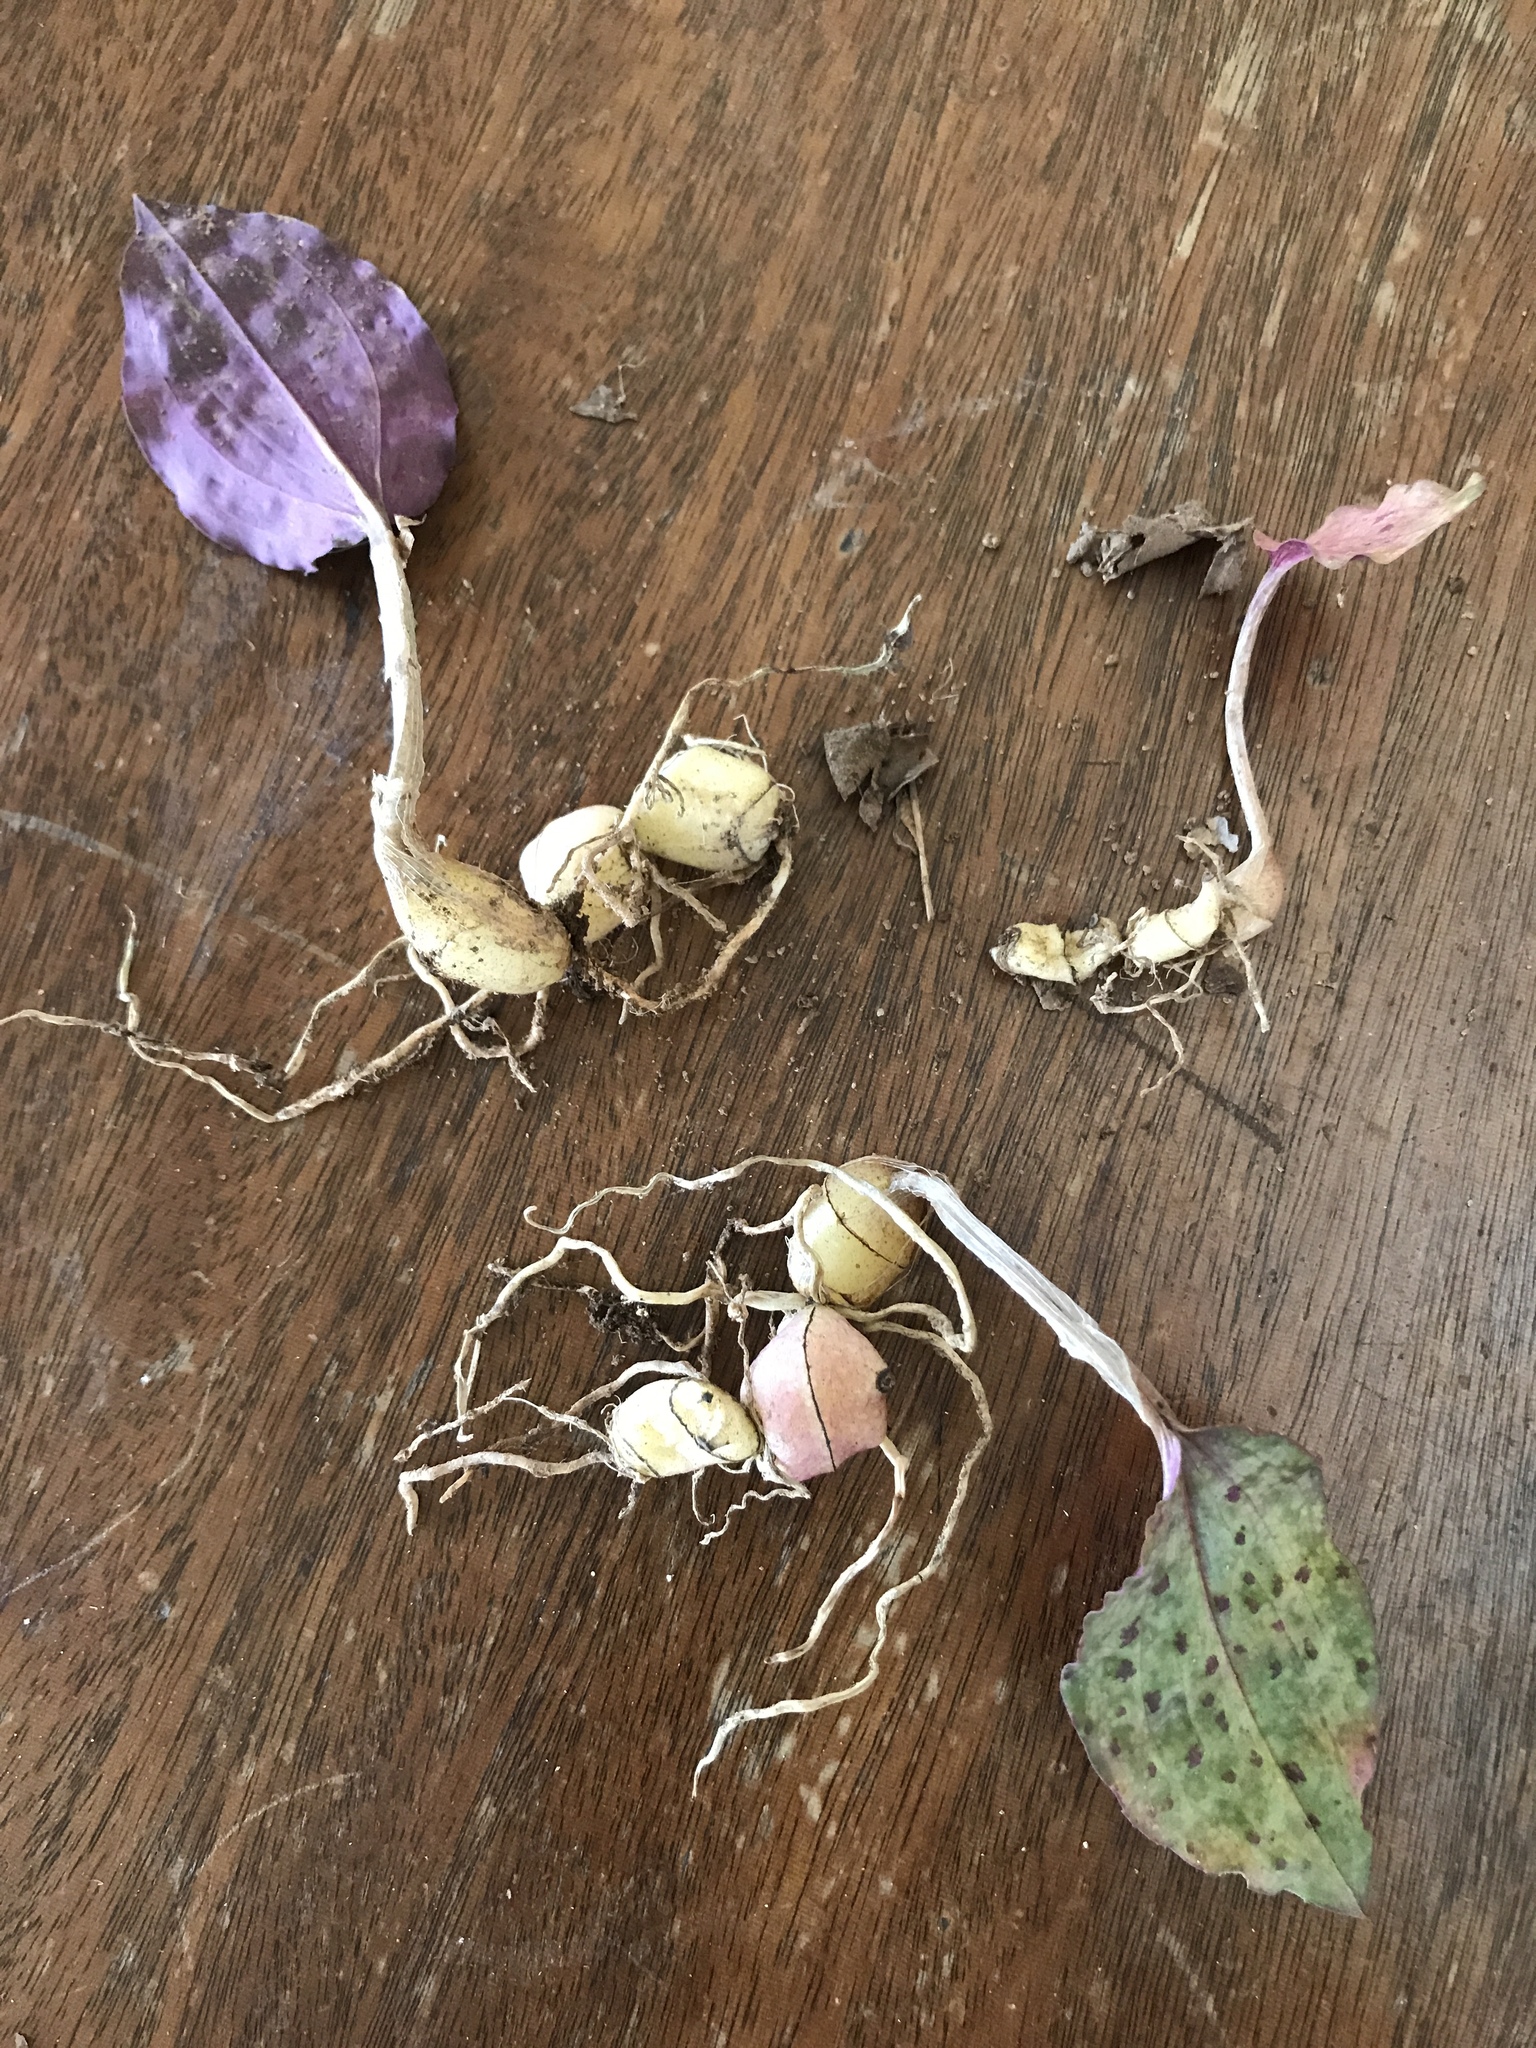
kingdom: Plantae
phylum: Tracheophyta
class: Liliopsida
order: Asparagales
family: Orchidaceae
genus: Tipularia
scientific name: Tipularia discolor
